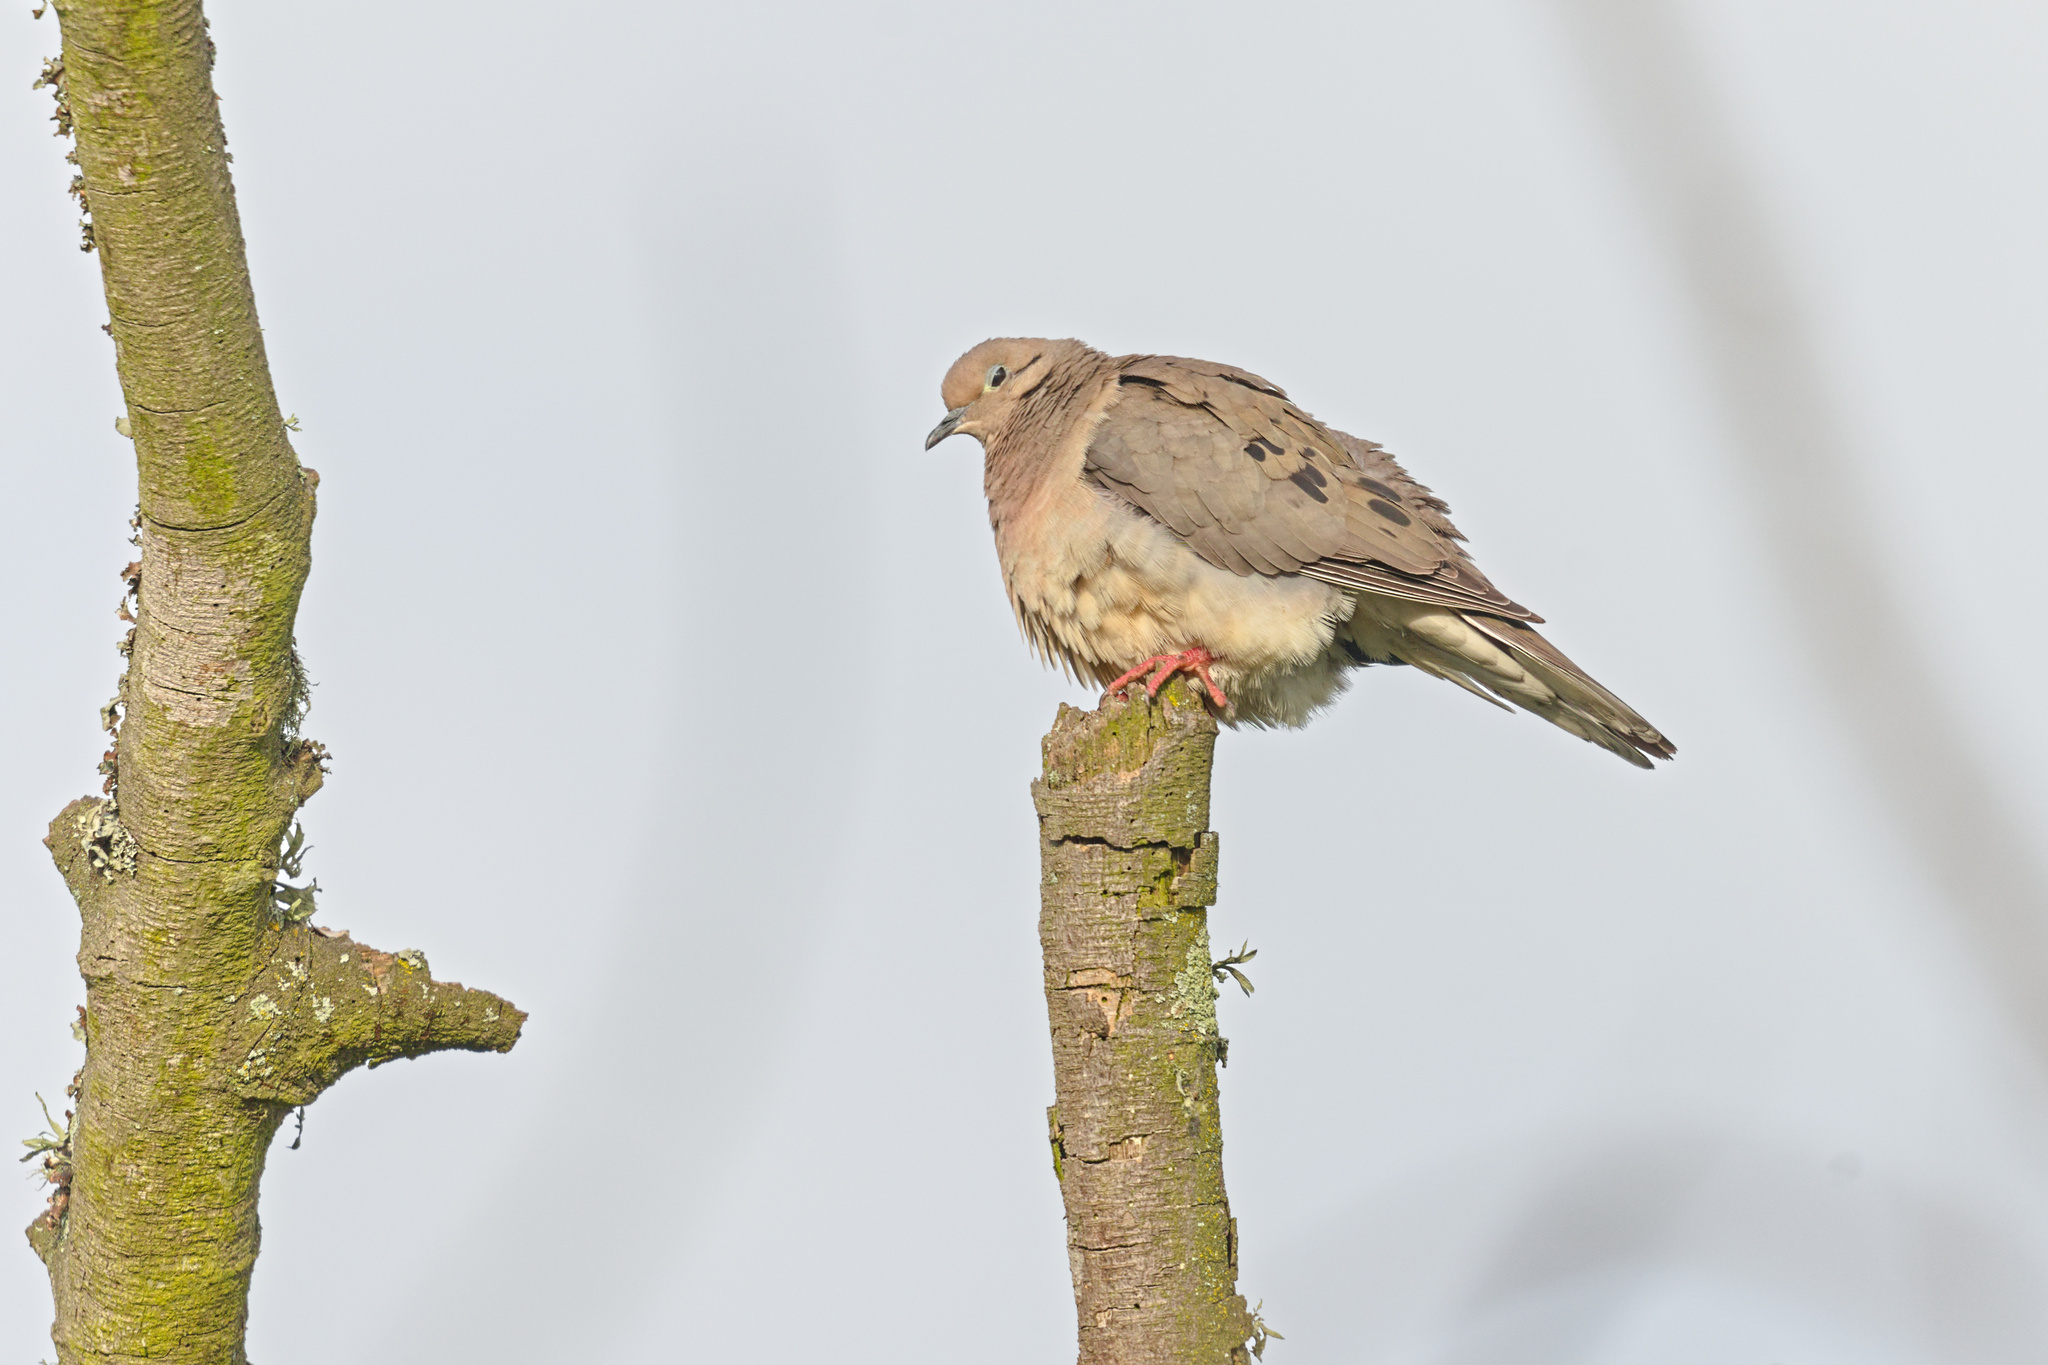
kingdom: Animalia
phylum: Chordata
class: Aves
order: Columbiformes
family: Columbidae
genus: Zenaida
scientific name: Zenaida auriculata
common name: Eared dove
